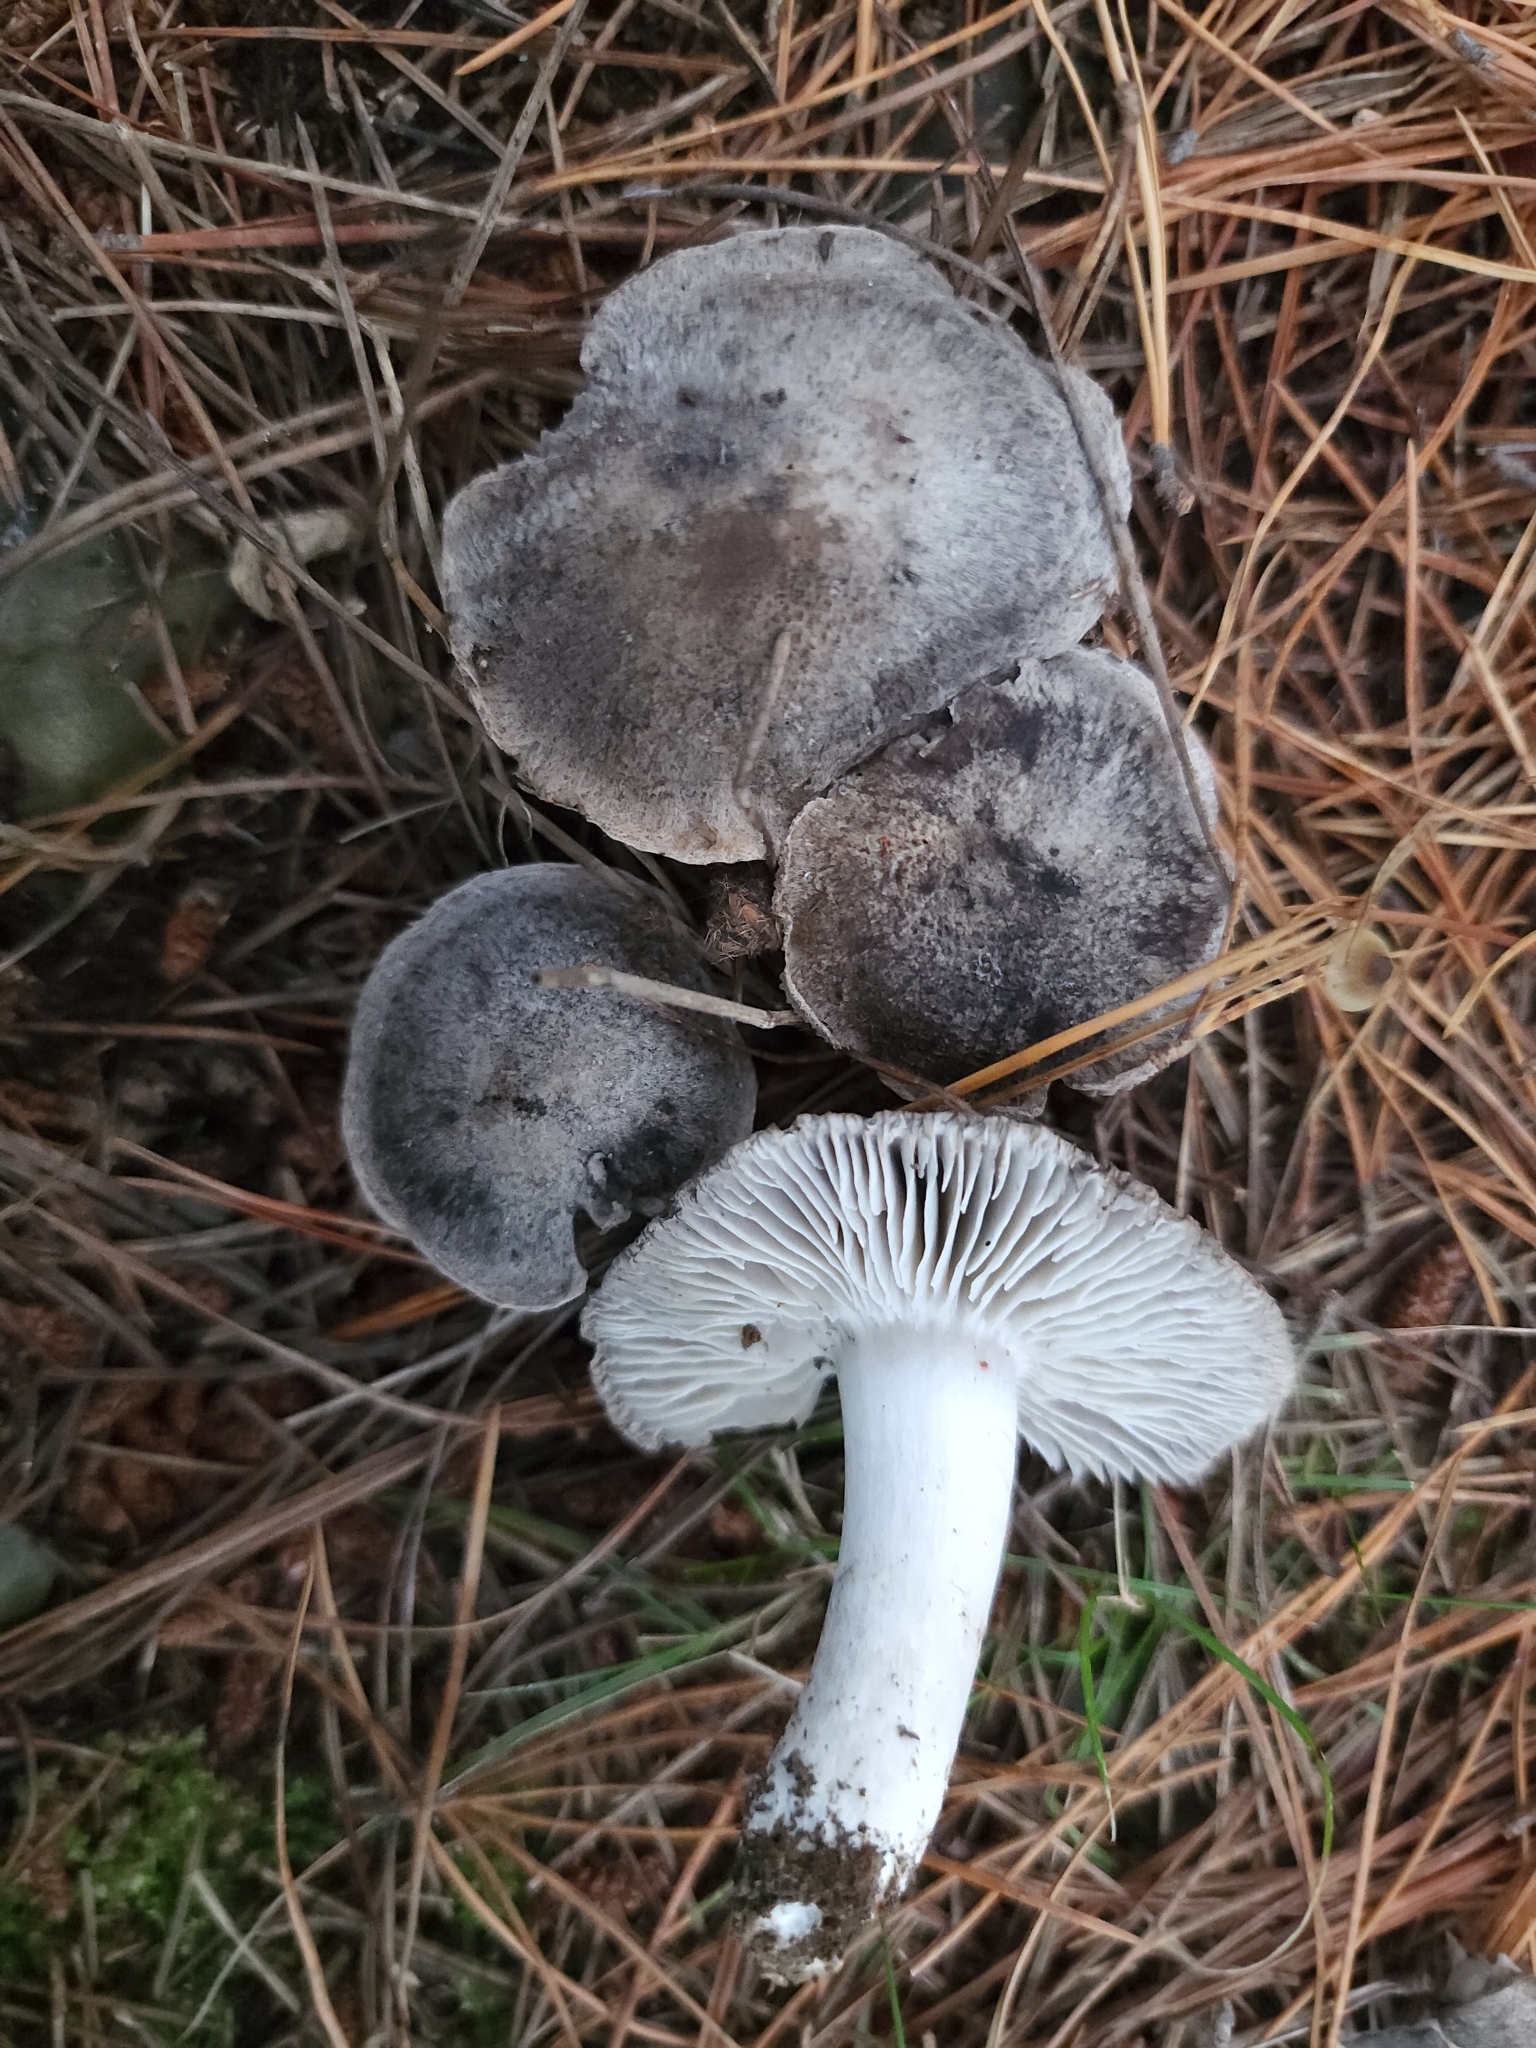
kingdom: Fungi
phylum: Basidiomycota
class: Agaricomycetes
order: Agaricales
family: Tricholomataceae
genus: Tricholoma
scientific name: Tricholoma terreum
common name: Grey knight
